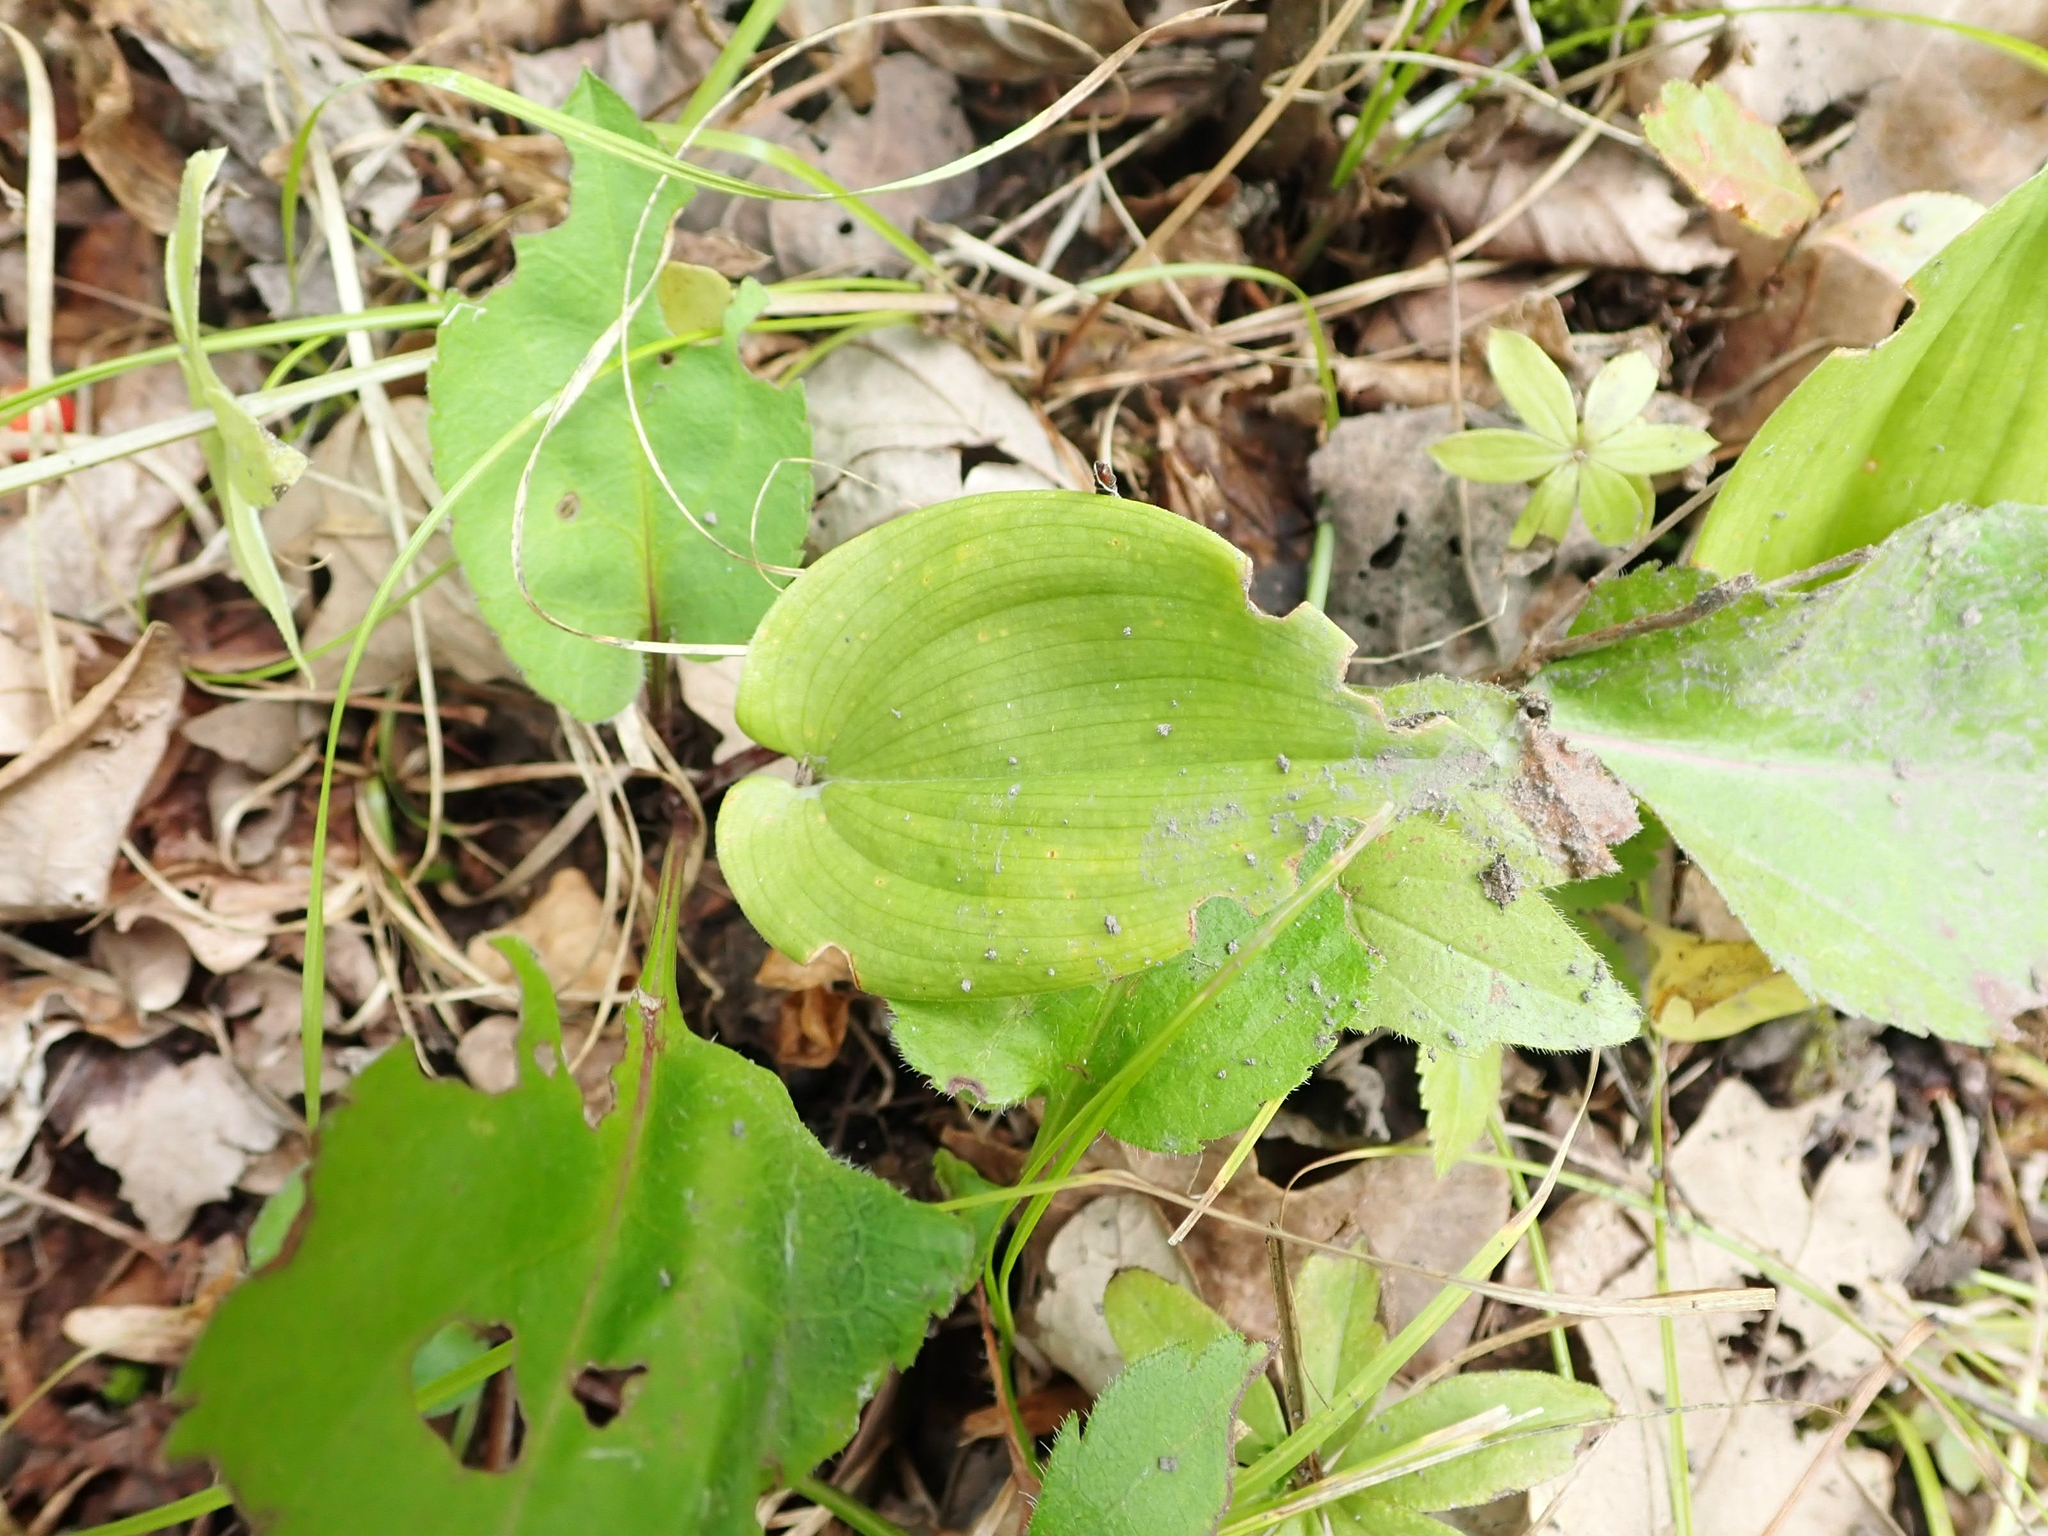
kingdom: Plantae
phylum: Tracheophyta
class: Liliopsida
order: Asparagales
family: Asparagaceae
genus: Maianthemum
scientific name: Maianthemum canadense
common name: False lily-of-the-valley
